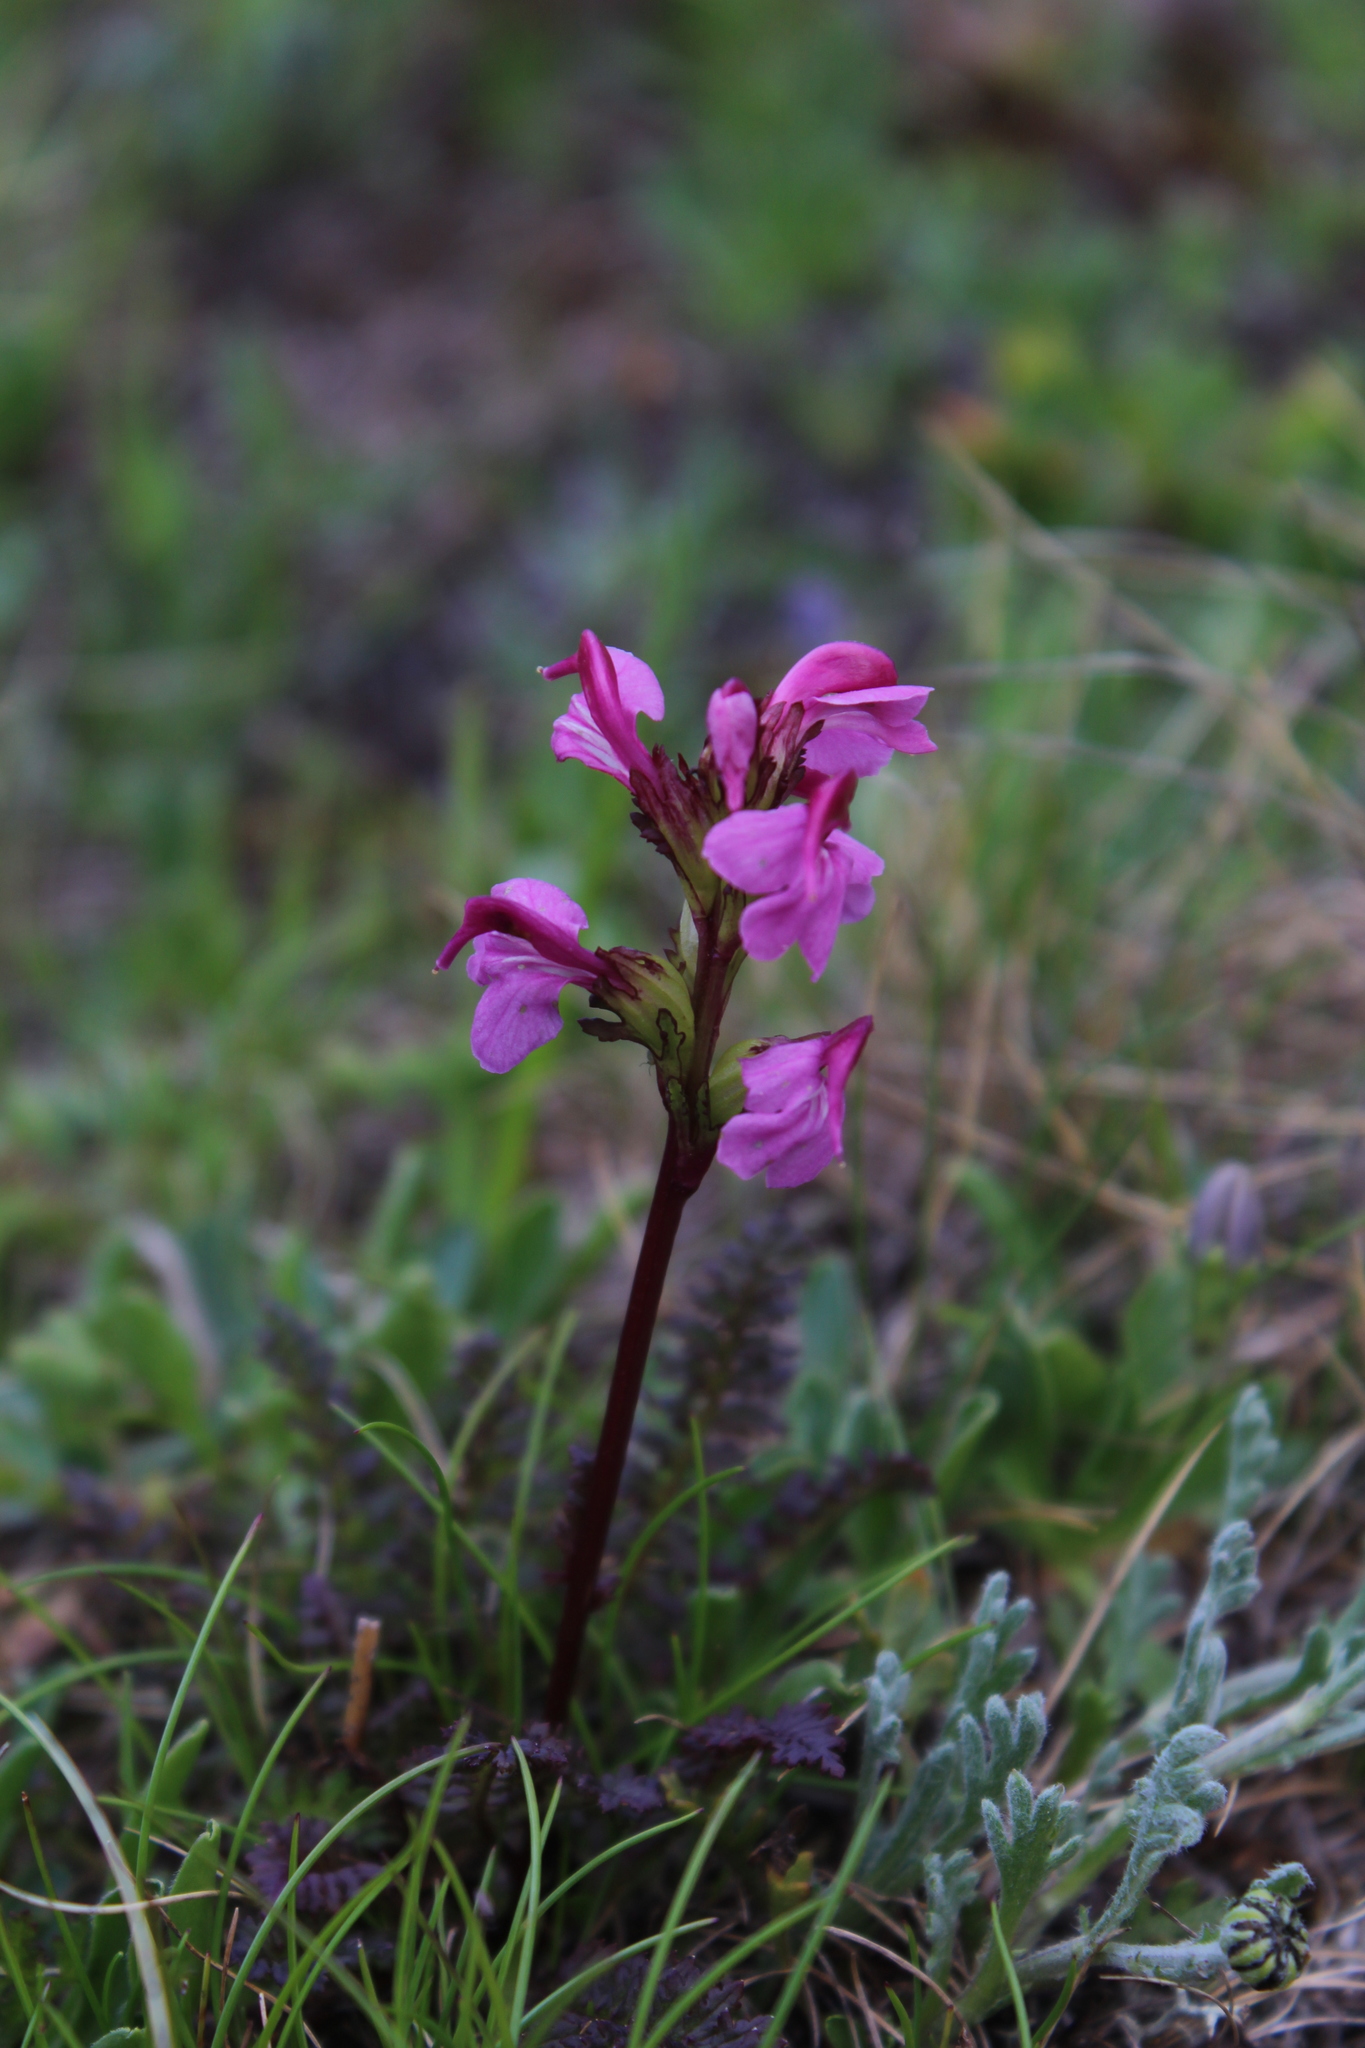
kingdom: Plantae
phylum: Tracheophyta
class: Magnoliopsida
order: Lamiales
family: Orobanchaceae
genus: Pedicularis
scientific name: Pedicularis nordmanniana
